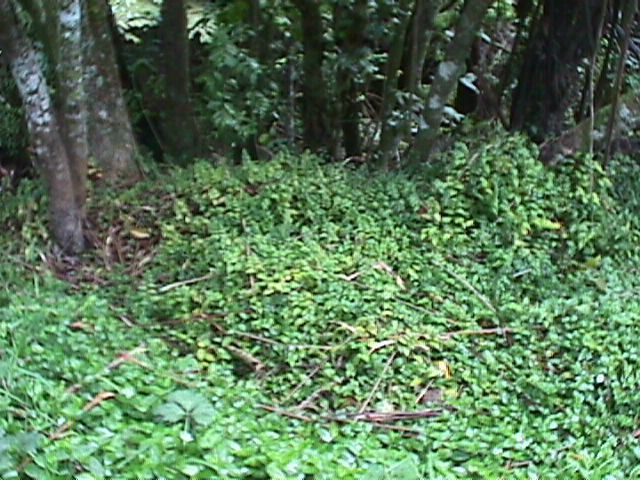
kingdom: Plantae
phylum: Tracheophyta
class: Liliopsida
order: Commelinales
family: Commelinaceae
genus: Tradescantia
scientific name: Tradescantia fluminensis
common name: Wandering-jew
